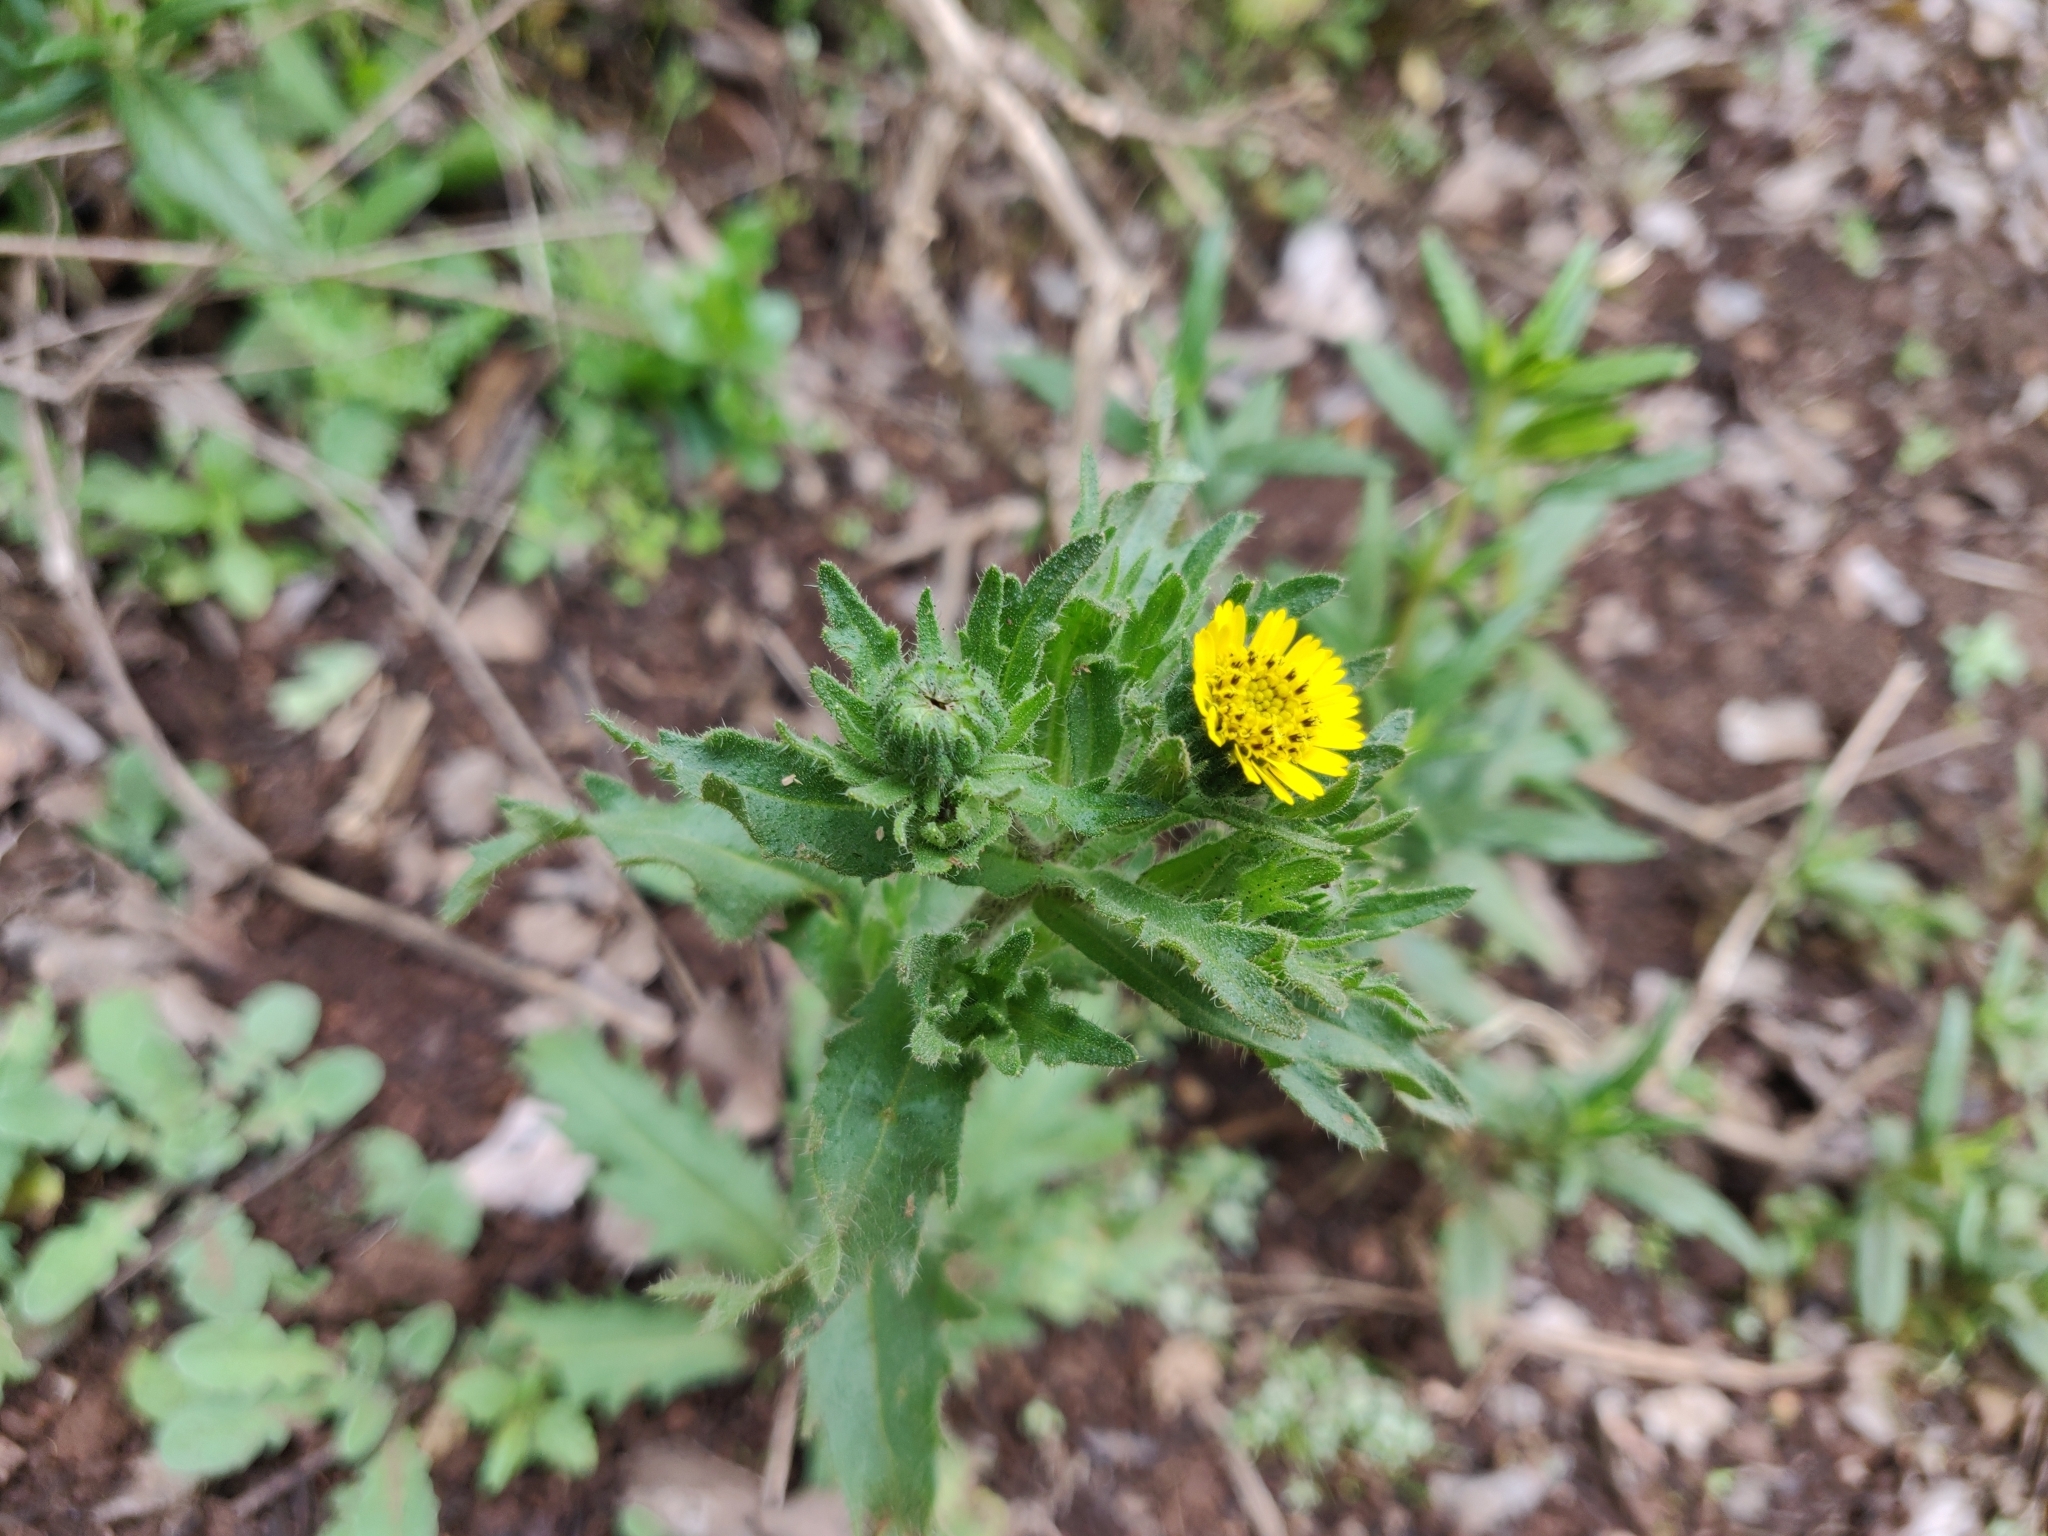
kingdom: Plantae
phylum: Tracheophyta
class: Magnoliopsida
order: Asterales
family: Asteraceae
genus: Layia
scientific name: Layia hieracioides
